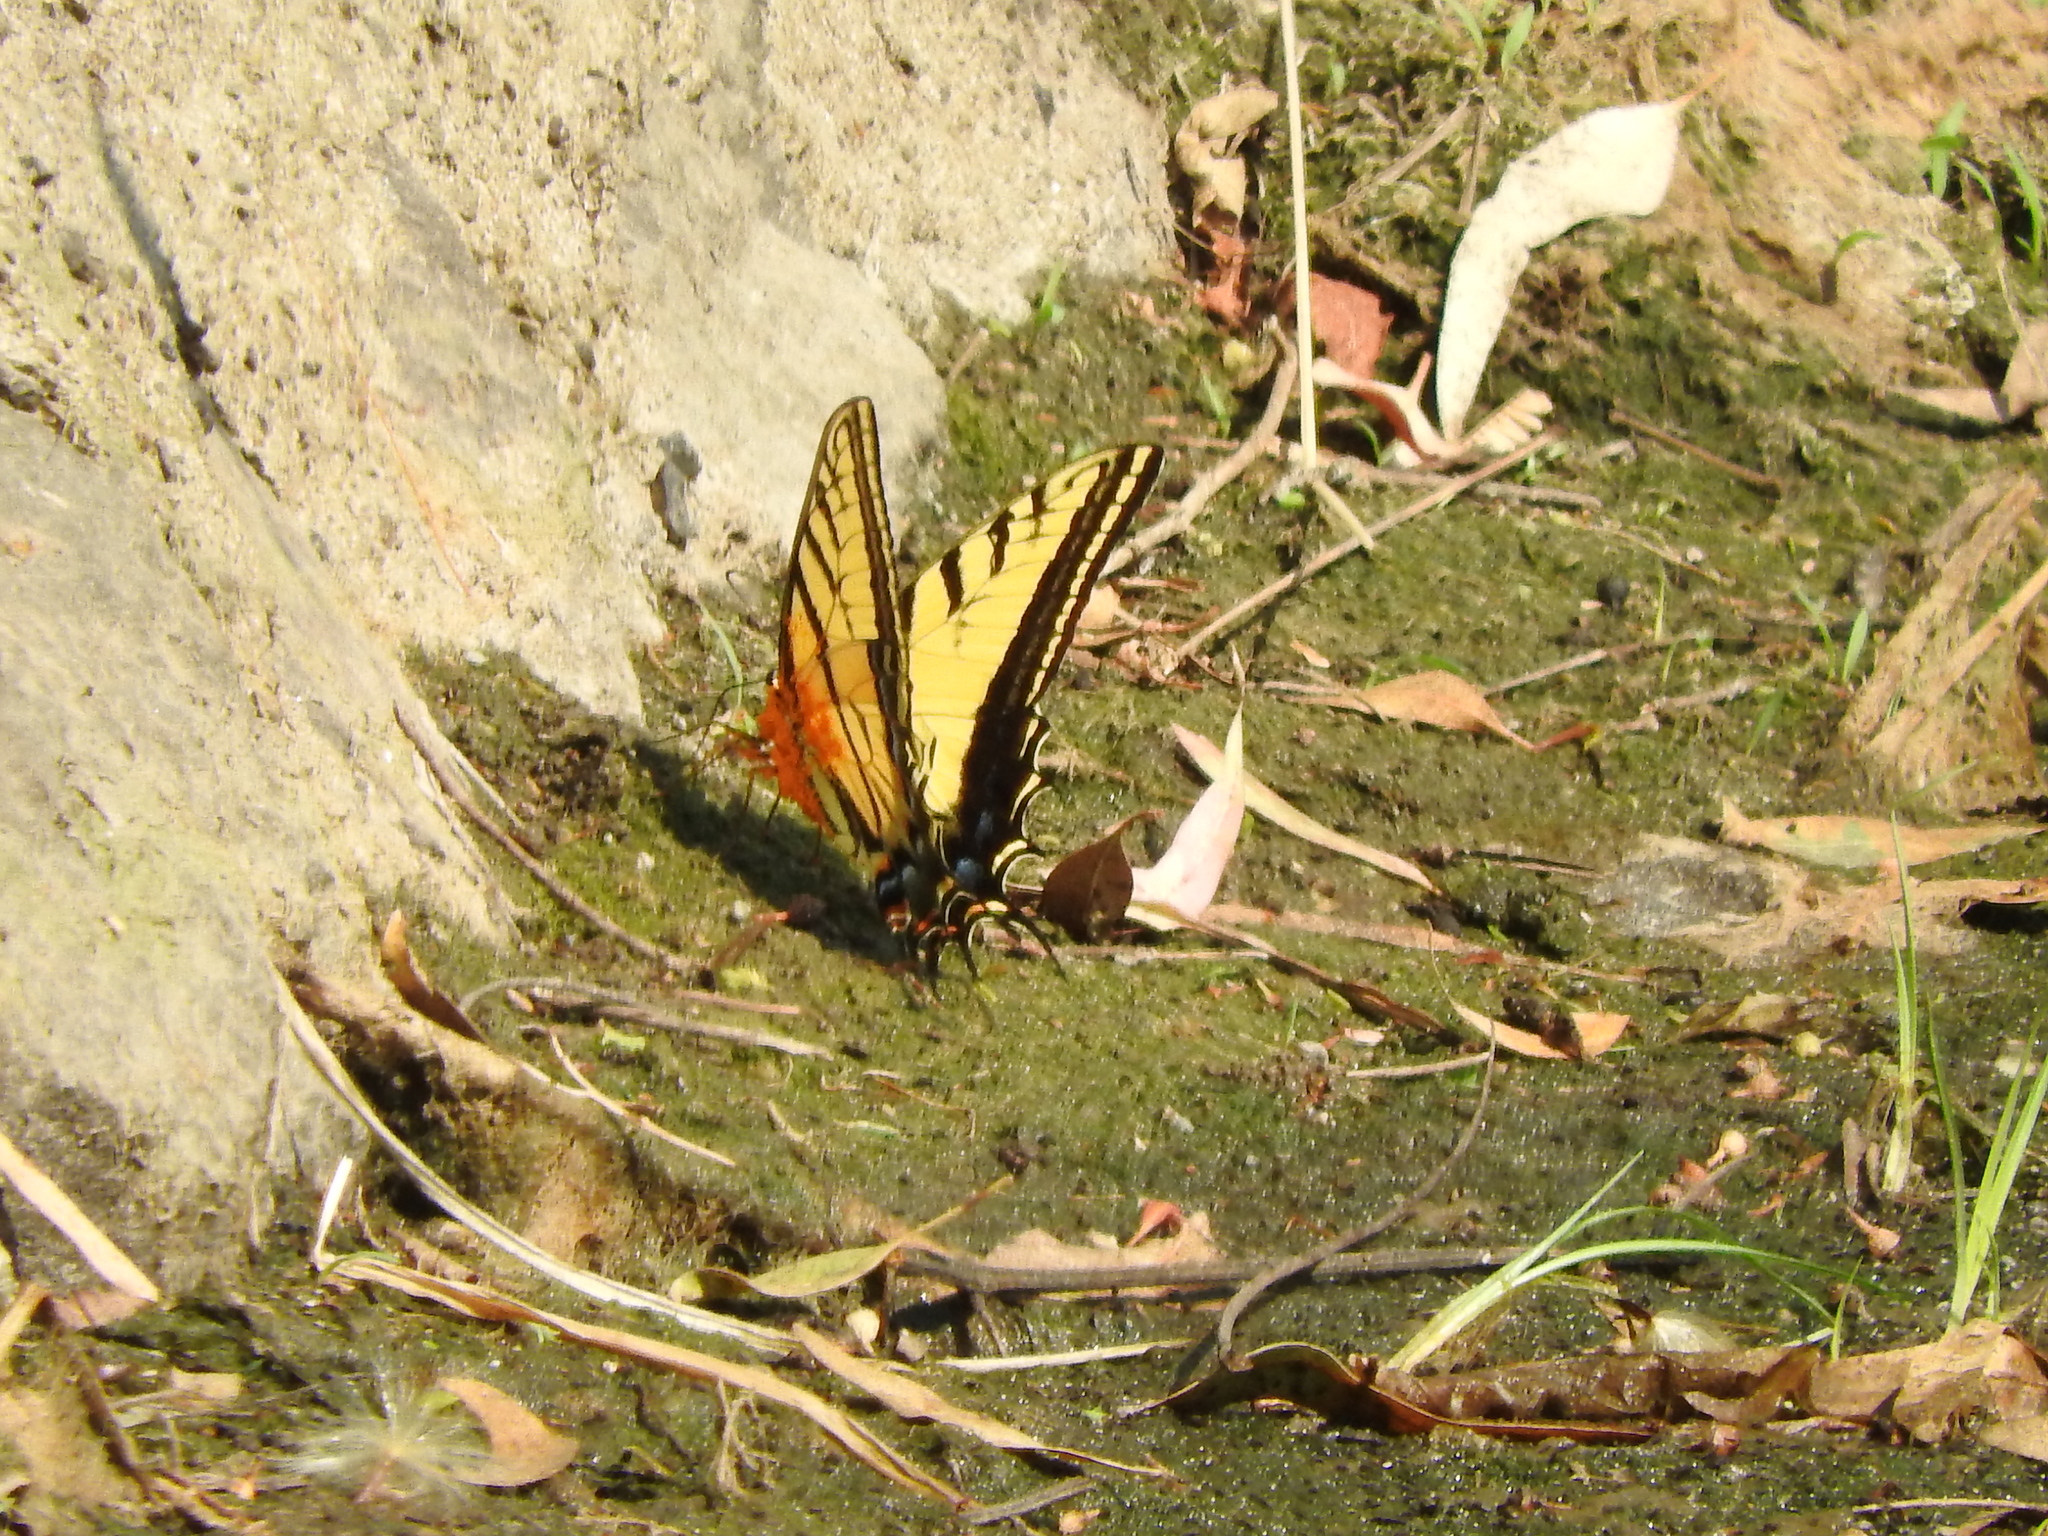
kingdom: Animalia
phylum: Arthropoda
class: Insecta
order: Lepidoptera
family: Papilionidae
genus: Papilio
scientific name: Papilio multicaudata
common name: Two-tailed tiger swallowtail
